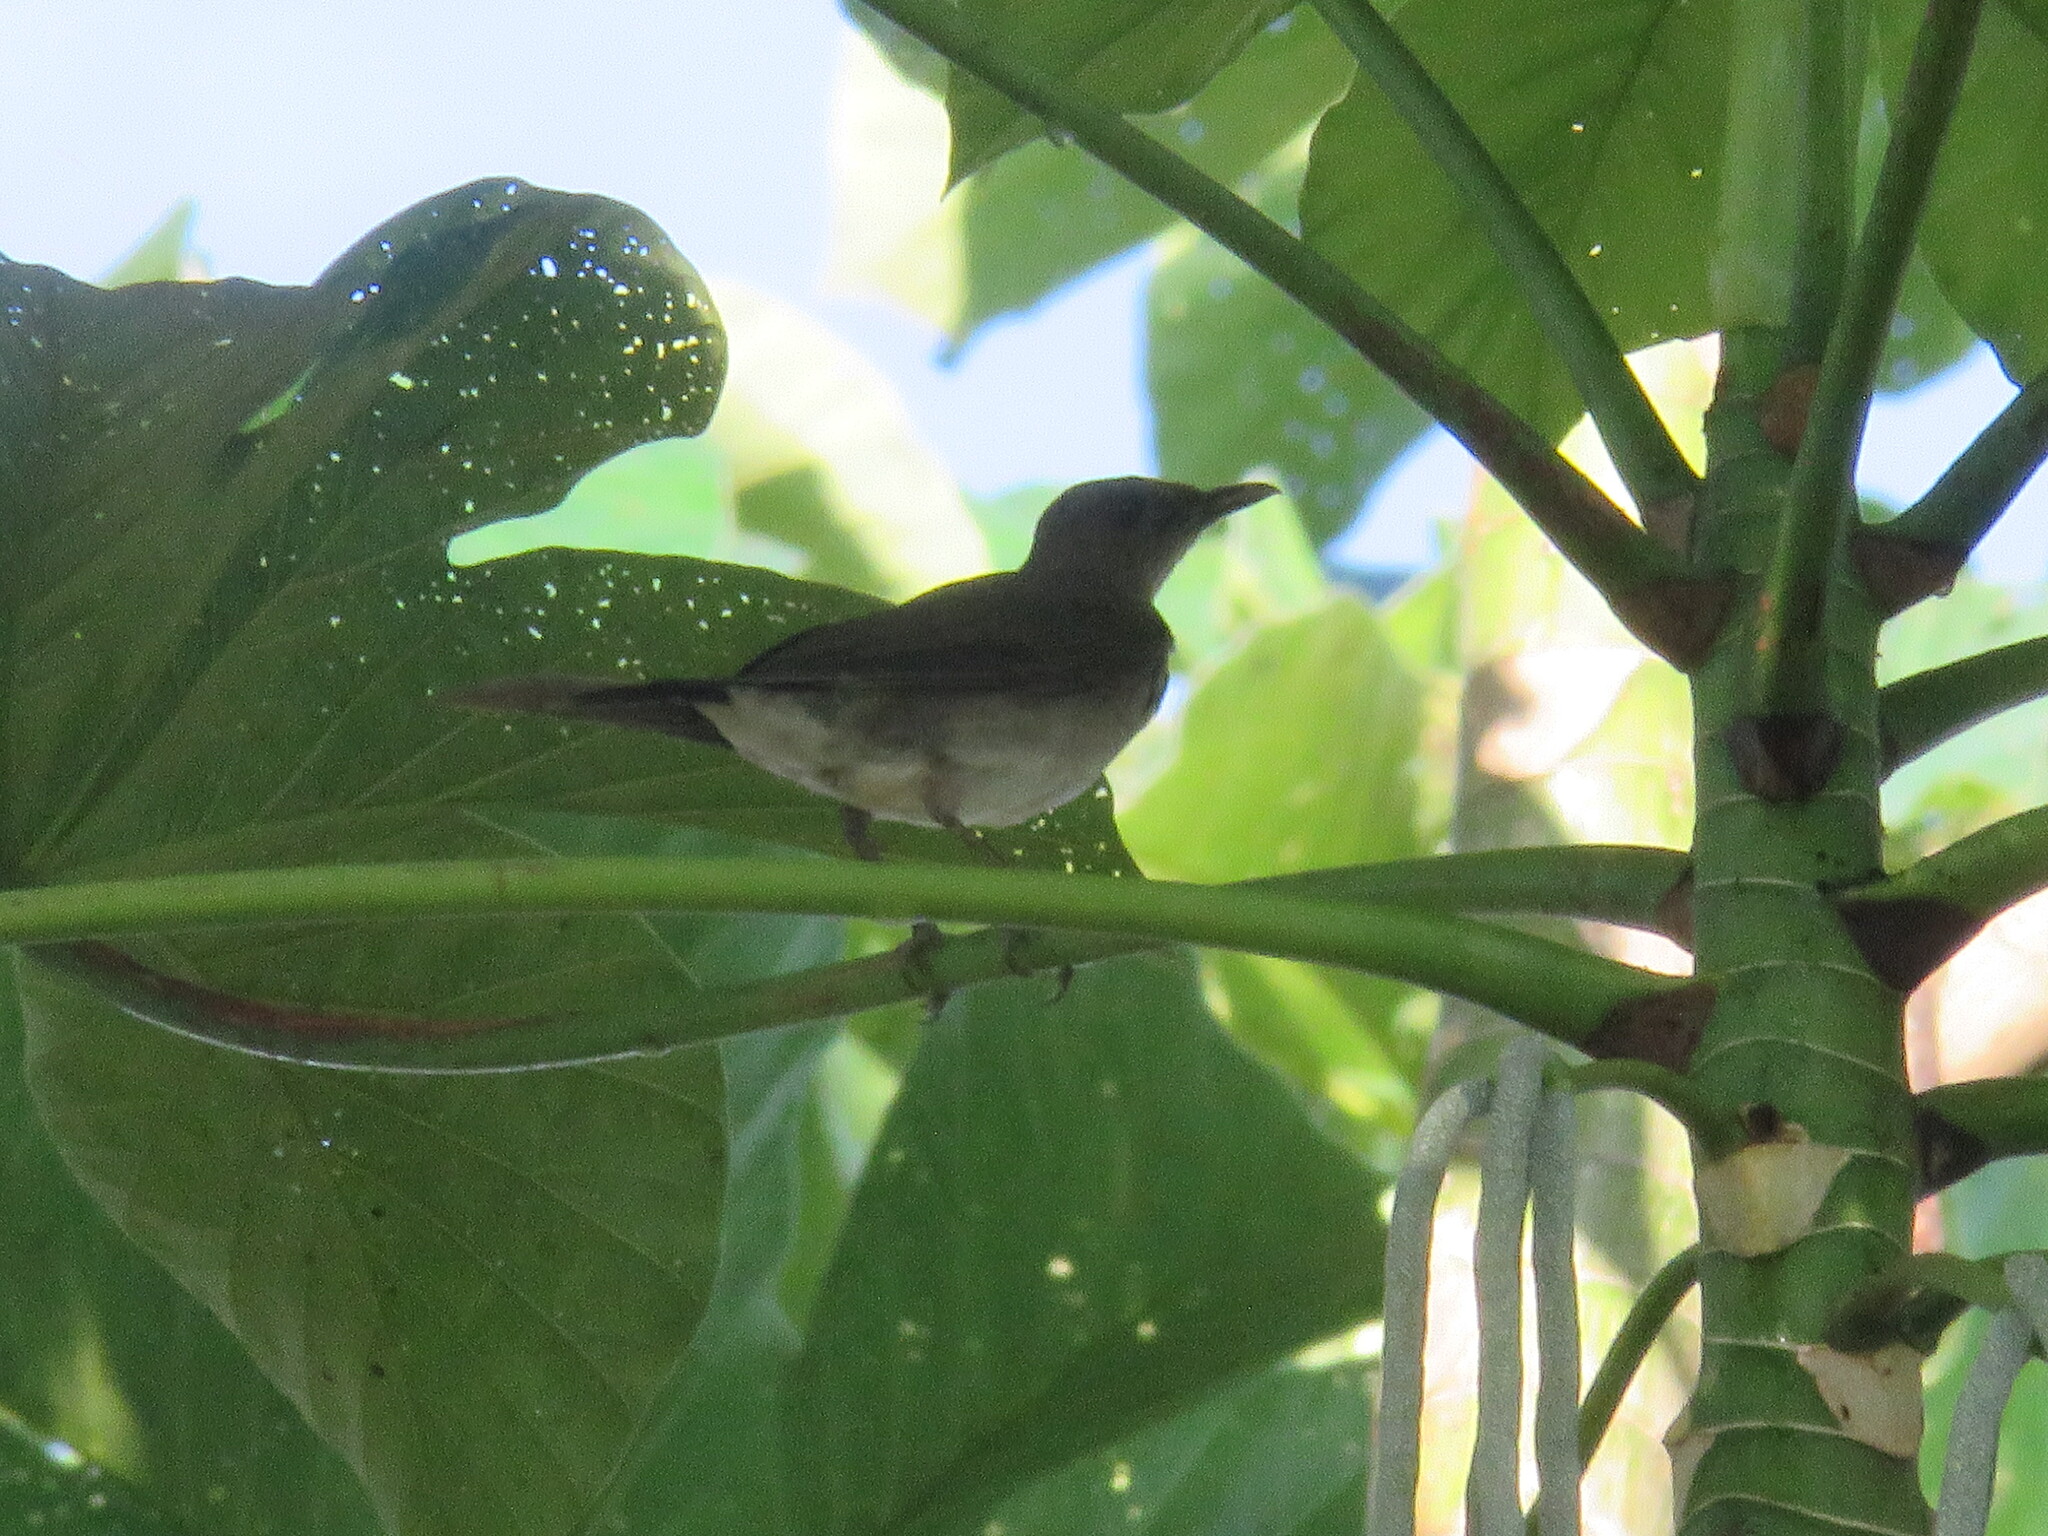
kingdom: Animalia
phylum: Chordata
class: Aves
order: Passeriformes
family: Turdidae
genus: Turdus
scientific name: Turdus ignobilis
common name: Black-billed thrush
